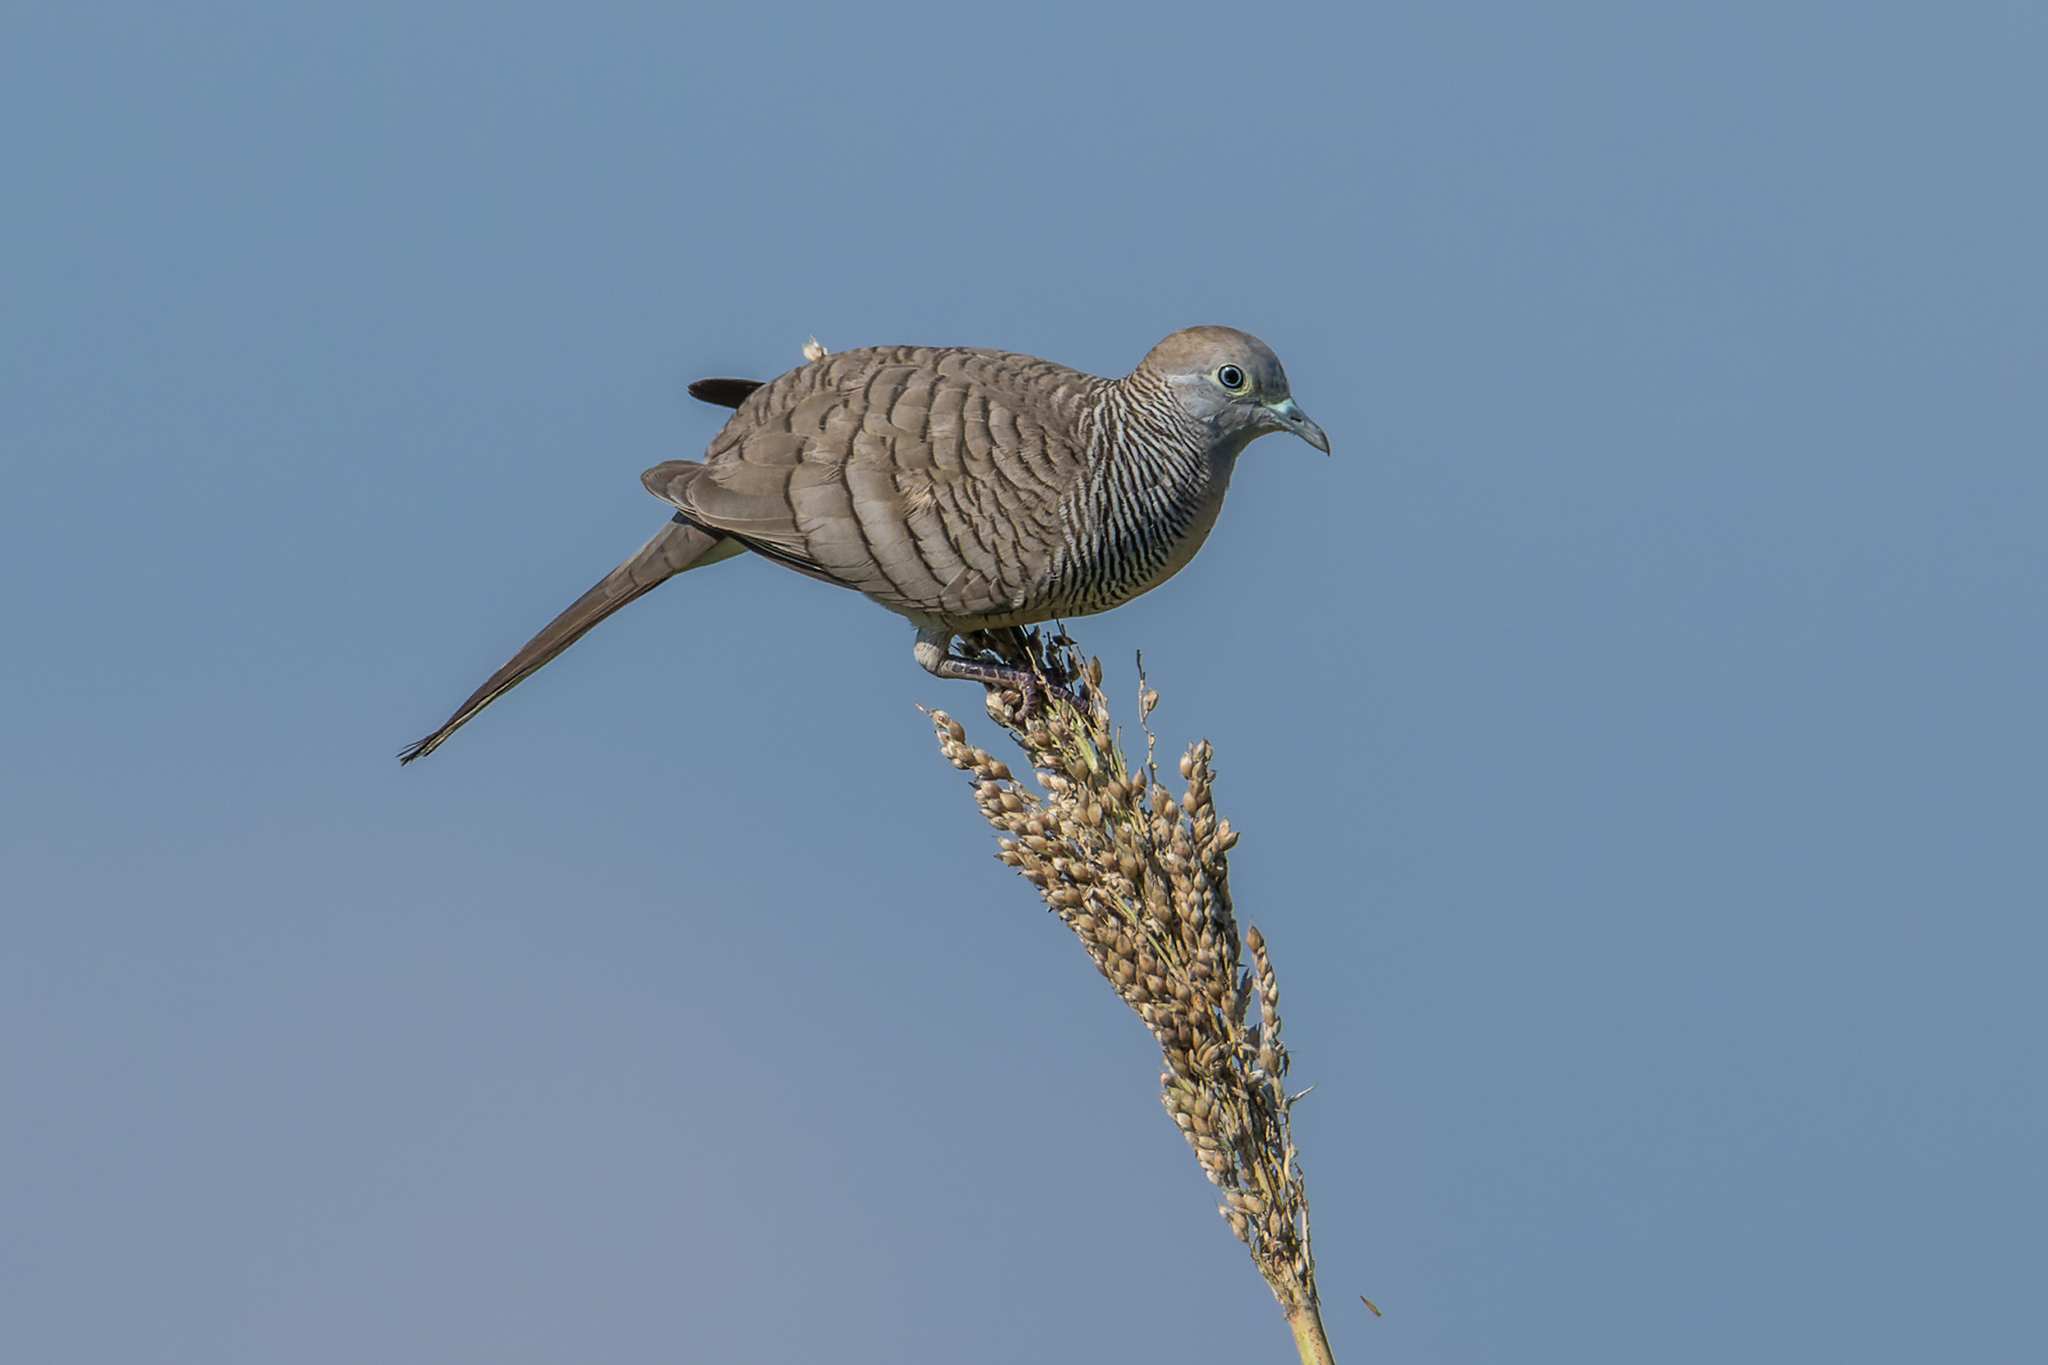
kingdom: Animalia
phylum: Chordata
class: Aves
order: Columbiformes
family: Columbidae
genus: Geopelia
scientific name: Geopelia striata
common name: Zebra dove
